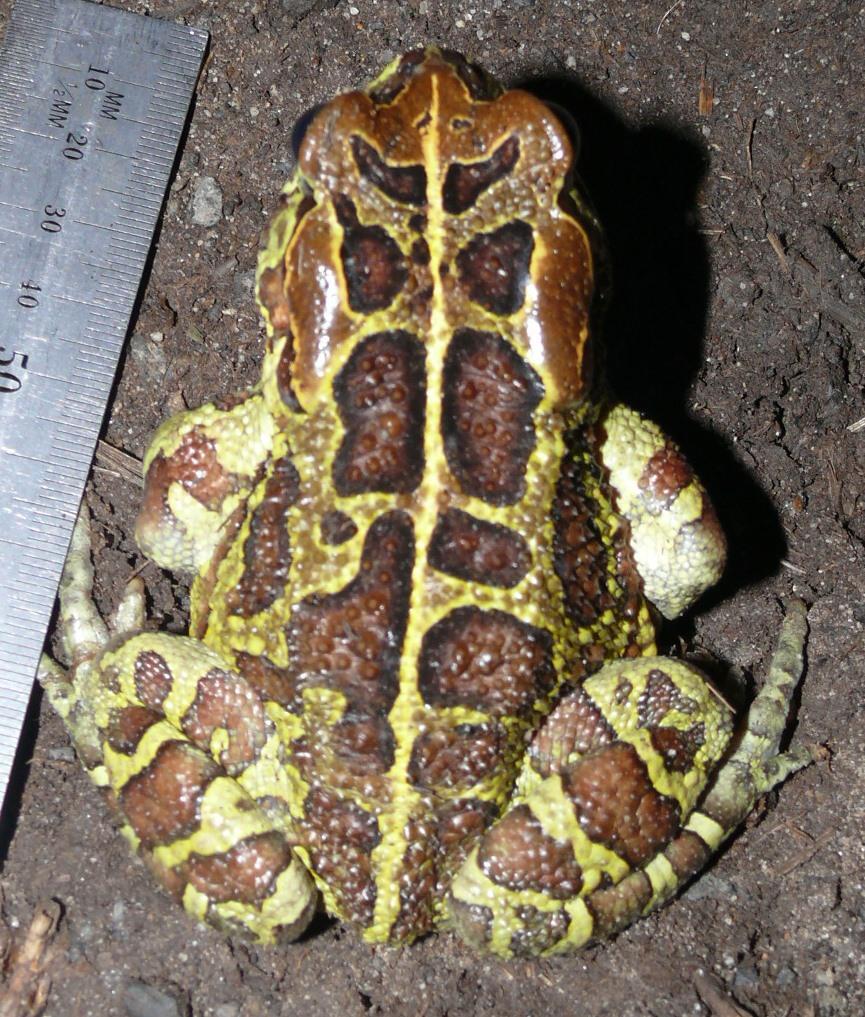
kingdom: Animalia
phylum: Chordata
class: Amphibia
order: Anura
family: Bufonidae
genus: Sclerophrys
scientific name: Sclerophrys pantherina
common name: Panther toad
